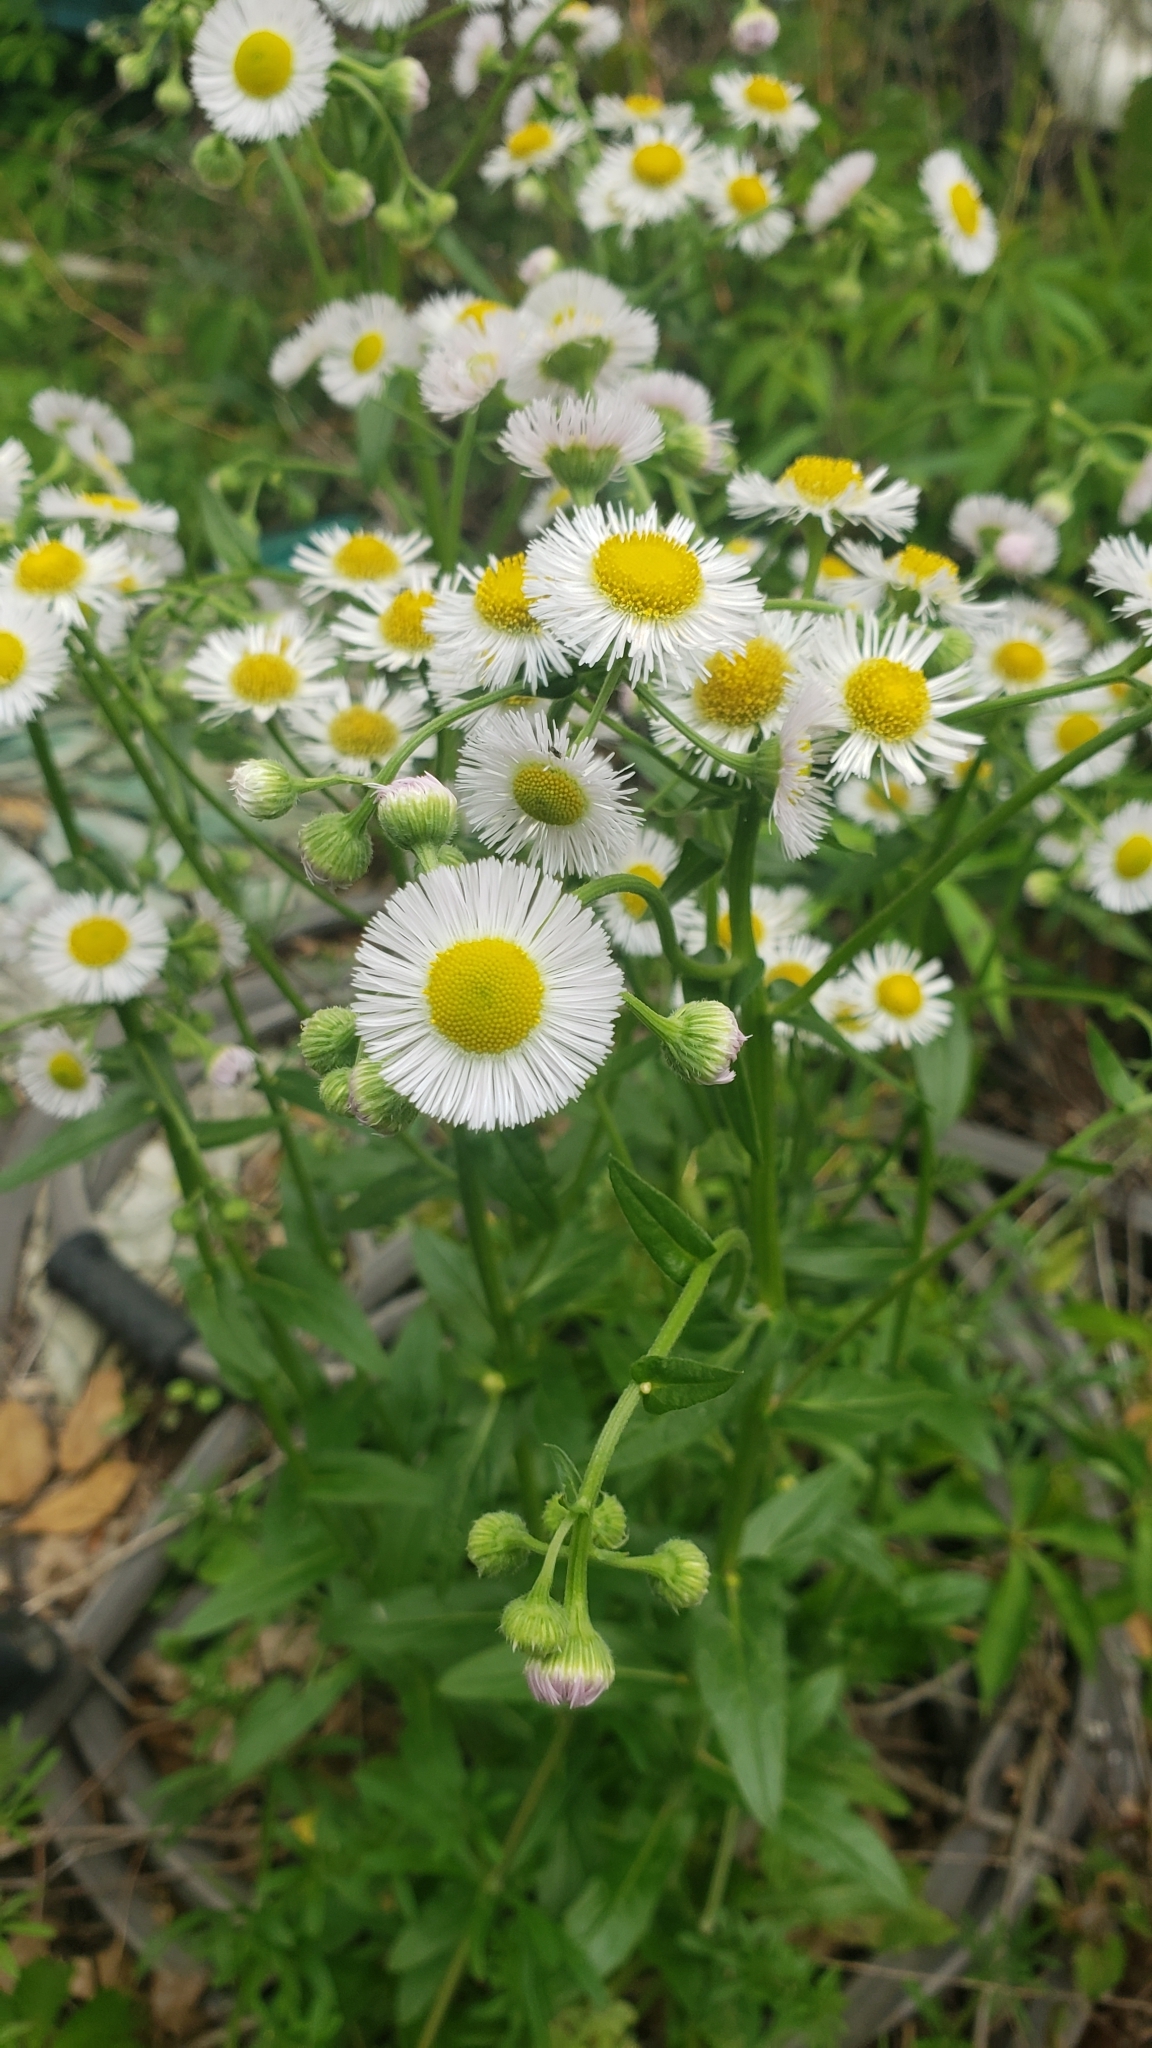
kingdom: Plantae
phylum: Tracheophyta
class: Magnoliopsida
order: Asterales
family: Asteraceae
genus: Erigeron
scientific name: Erigeron philadelphicus
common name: Robin's-plantain
